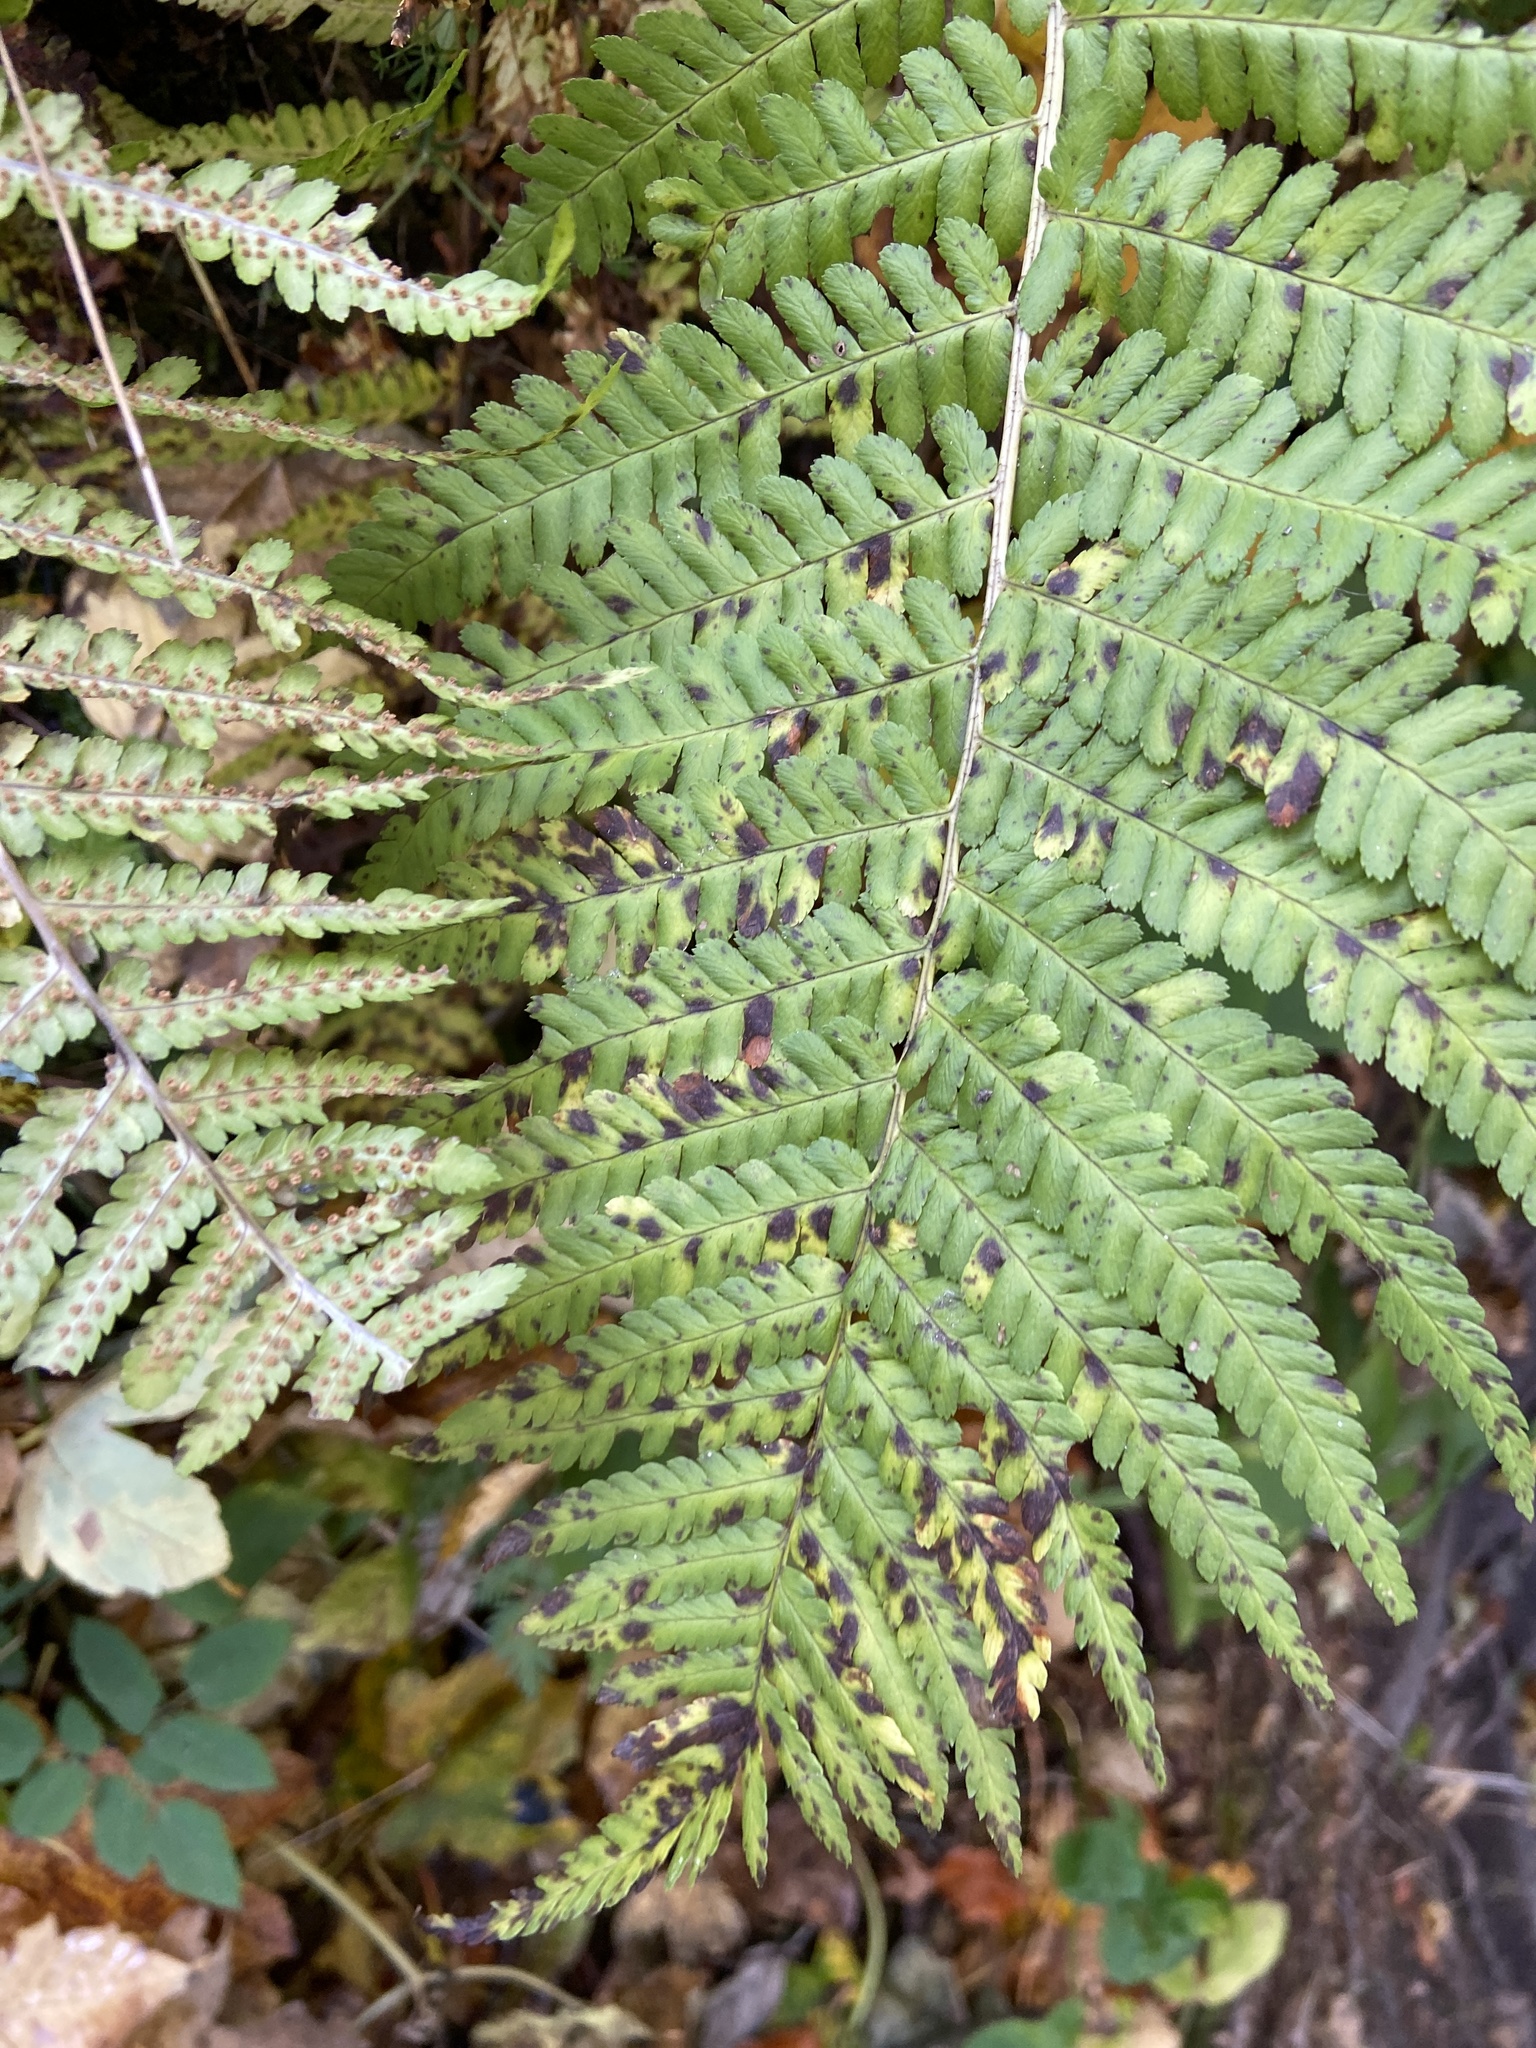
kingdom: Plantae
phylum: Tracheophyta
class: Polypodiopsida
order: Polypodiales
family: Dryopteridaceae
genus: Dryopteris
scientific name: Dryopteris filix-mas
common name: Male fern
